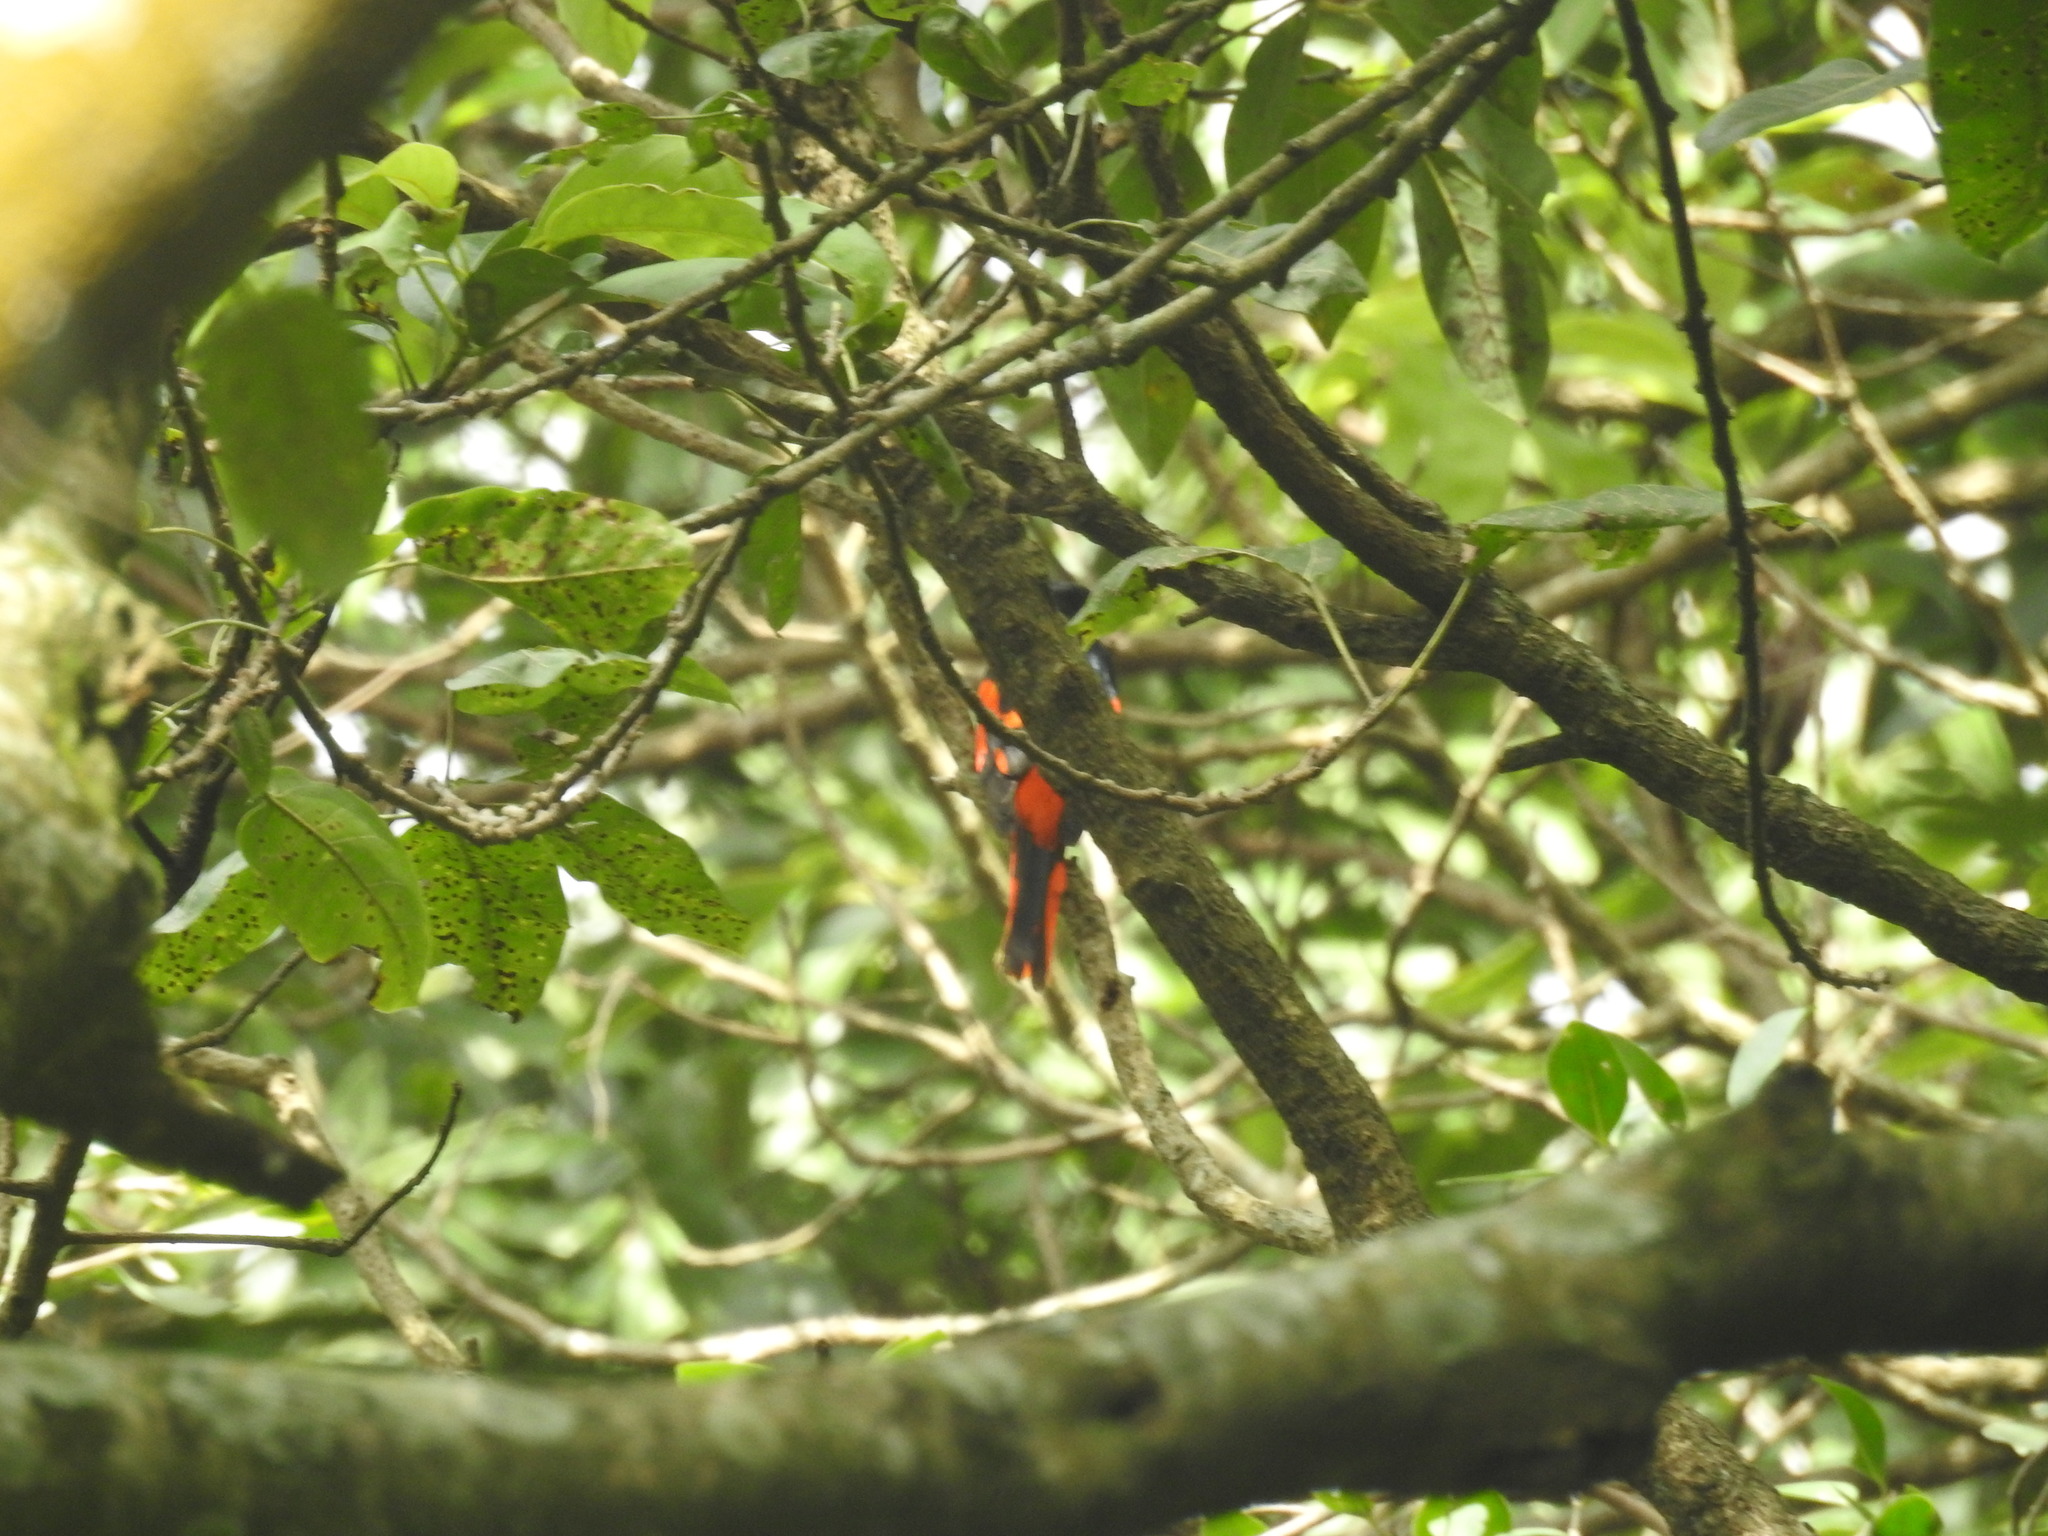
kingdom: Animalia
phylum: Chordata
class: Aves
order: Passeriformes
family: Campephagidae
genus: Pericrocotus
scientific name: Pericrocotus speciosus
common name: Scarlet minivet
